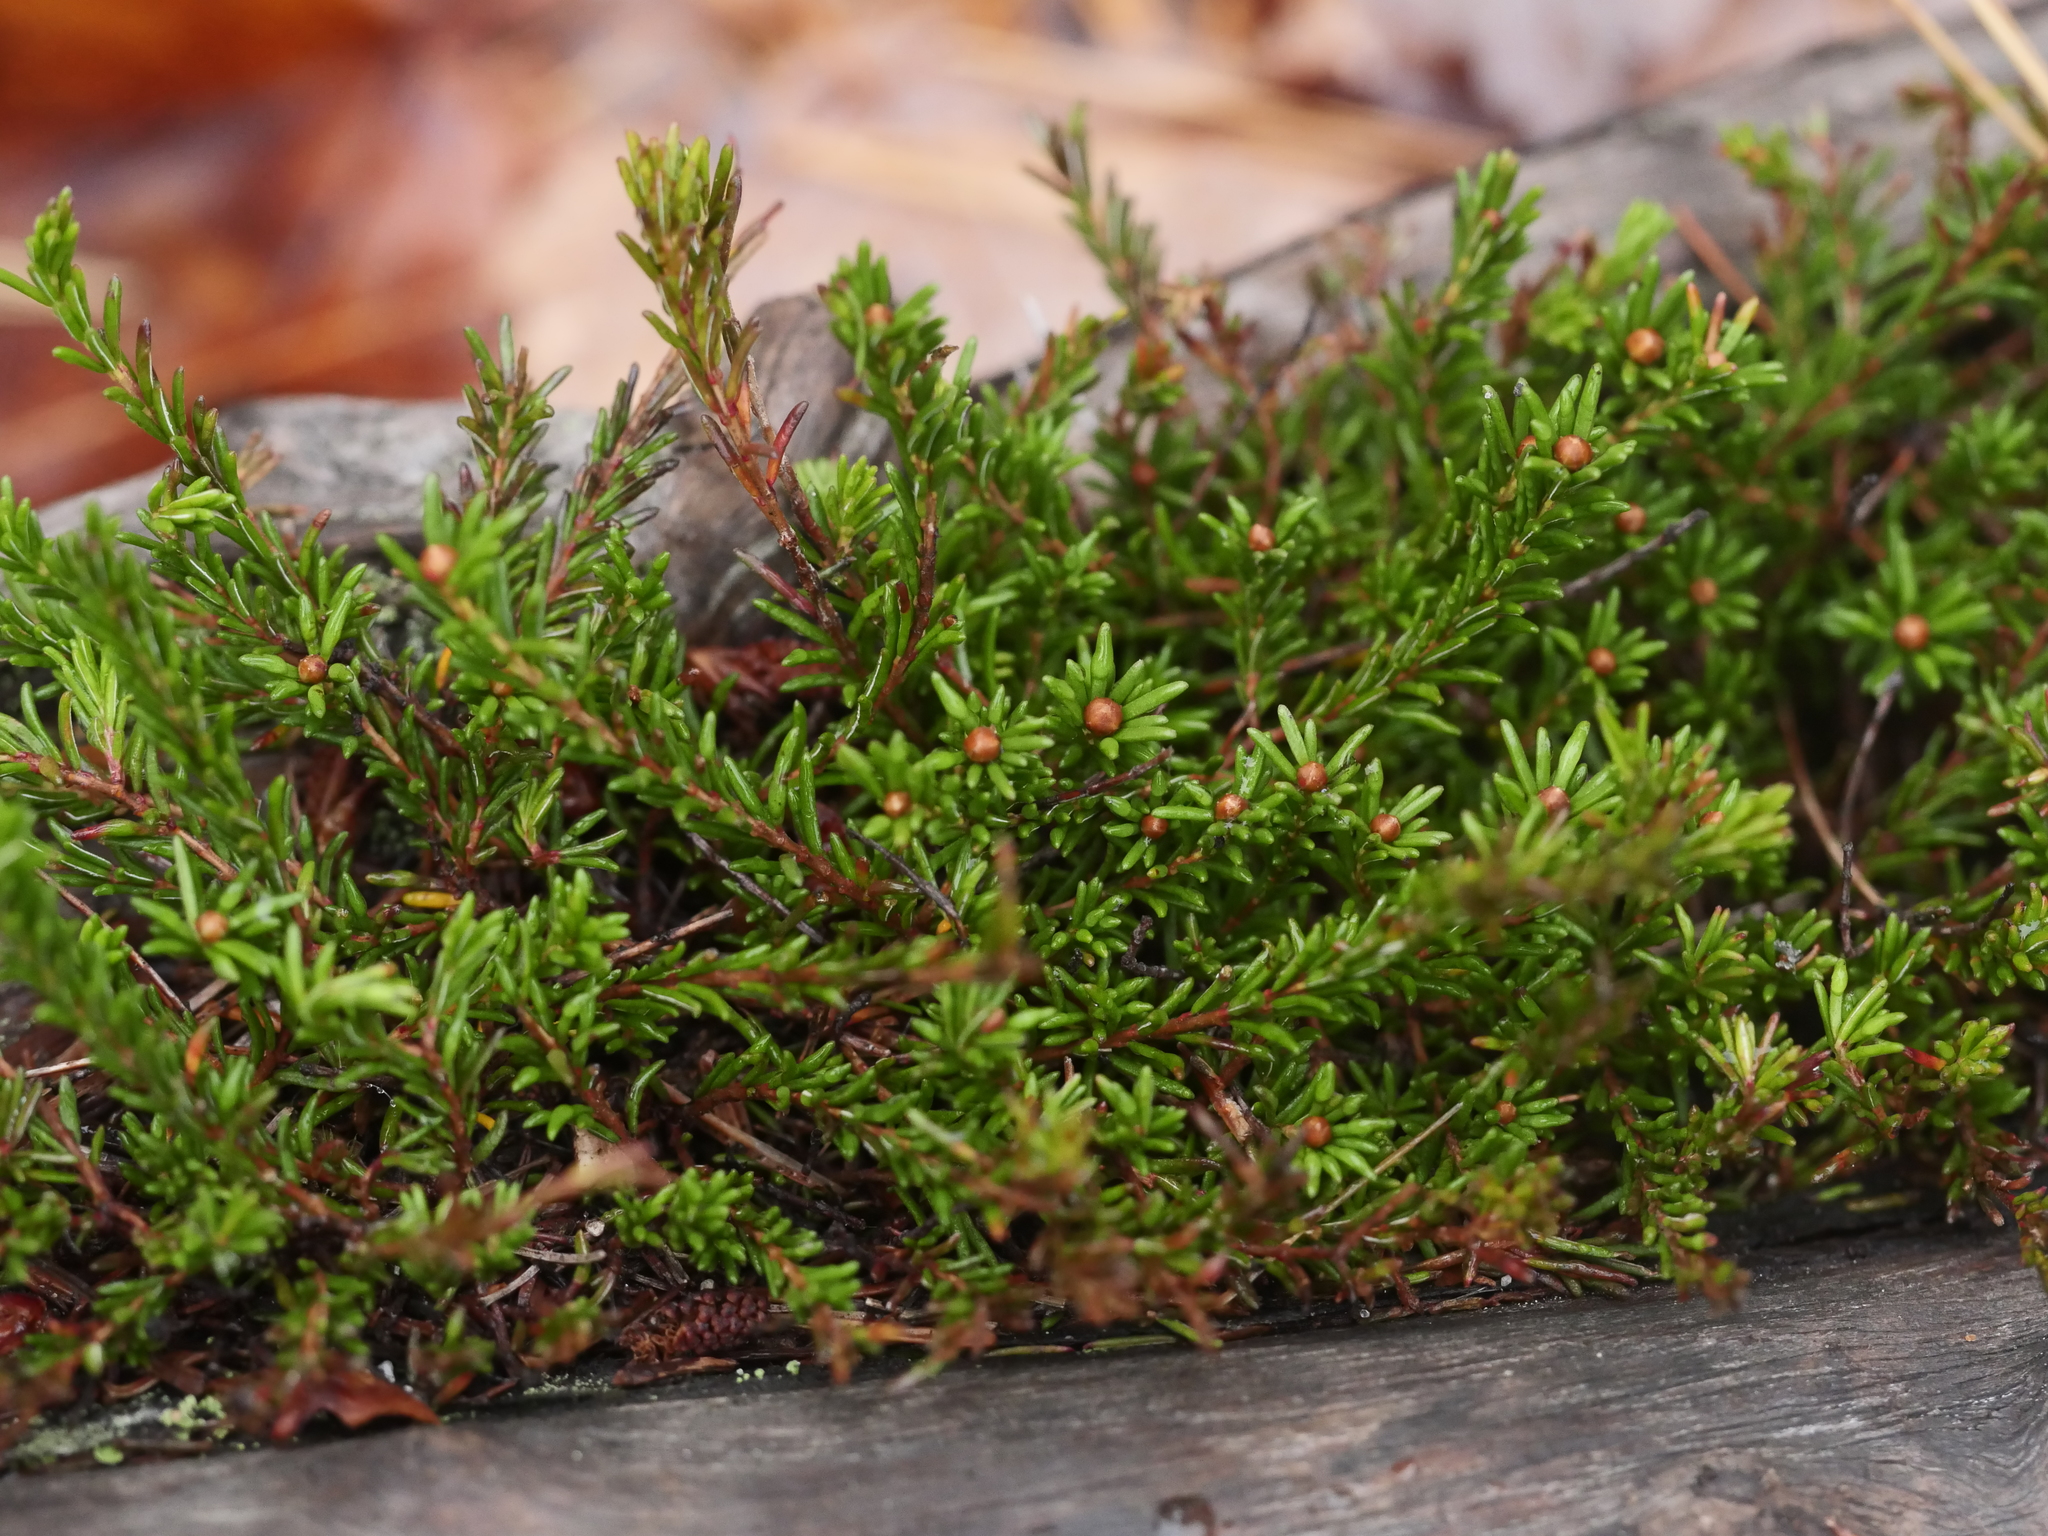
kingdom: Plantae
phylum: Tracheophyta
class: Magnoliopsida
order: Ericales
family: Ericaceae
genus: Corema
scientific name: Corema conradii
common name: Broom-crowberry
